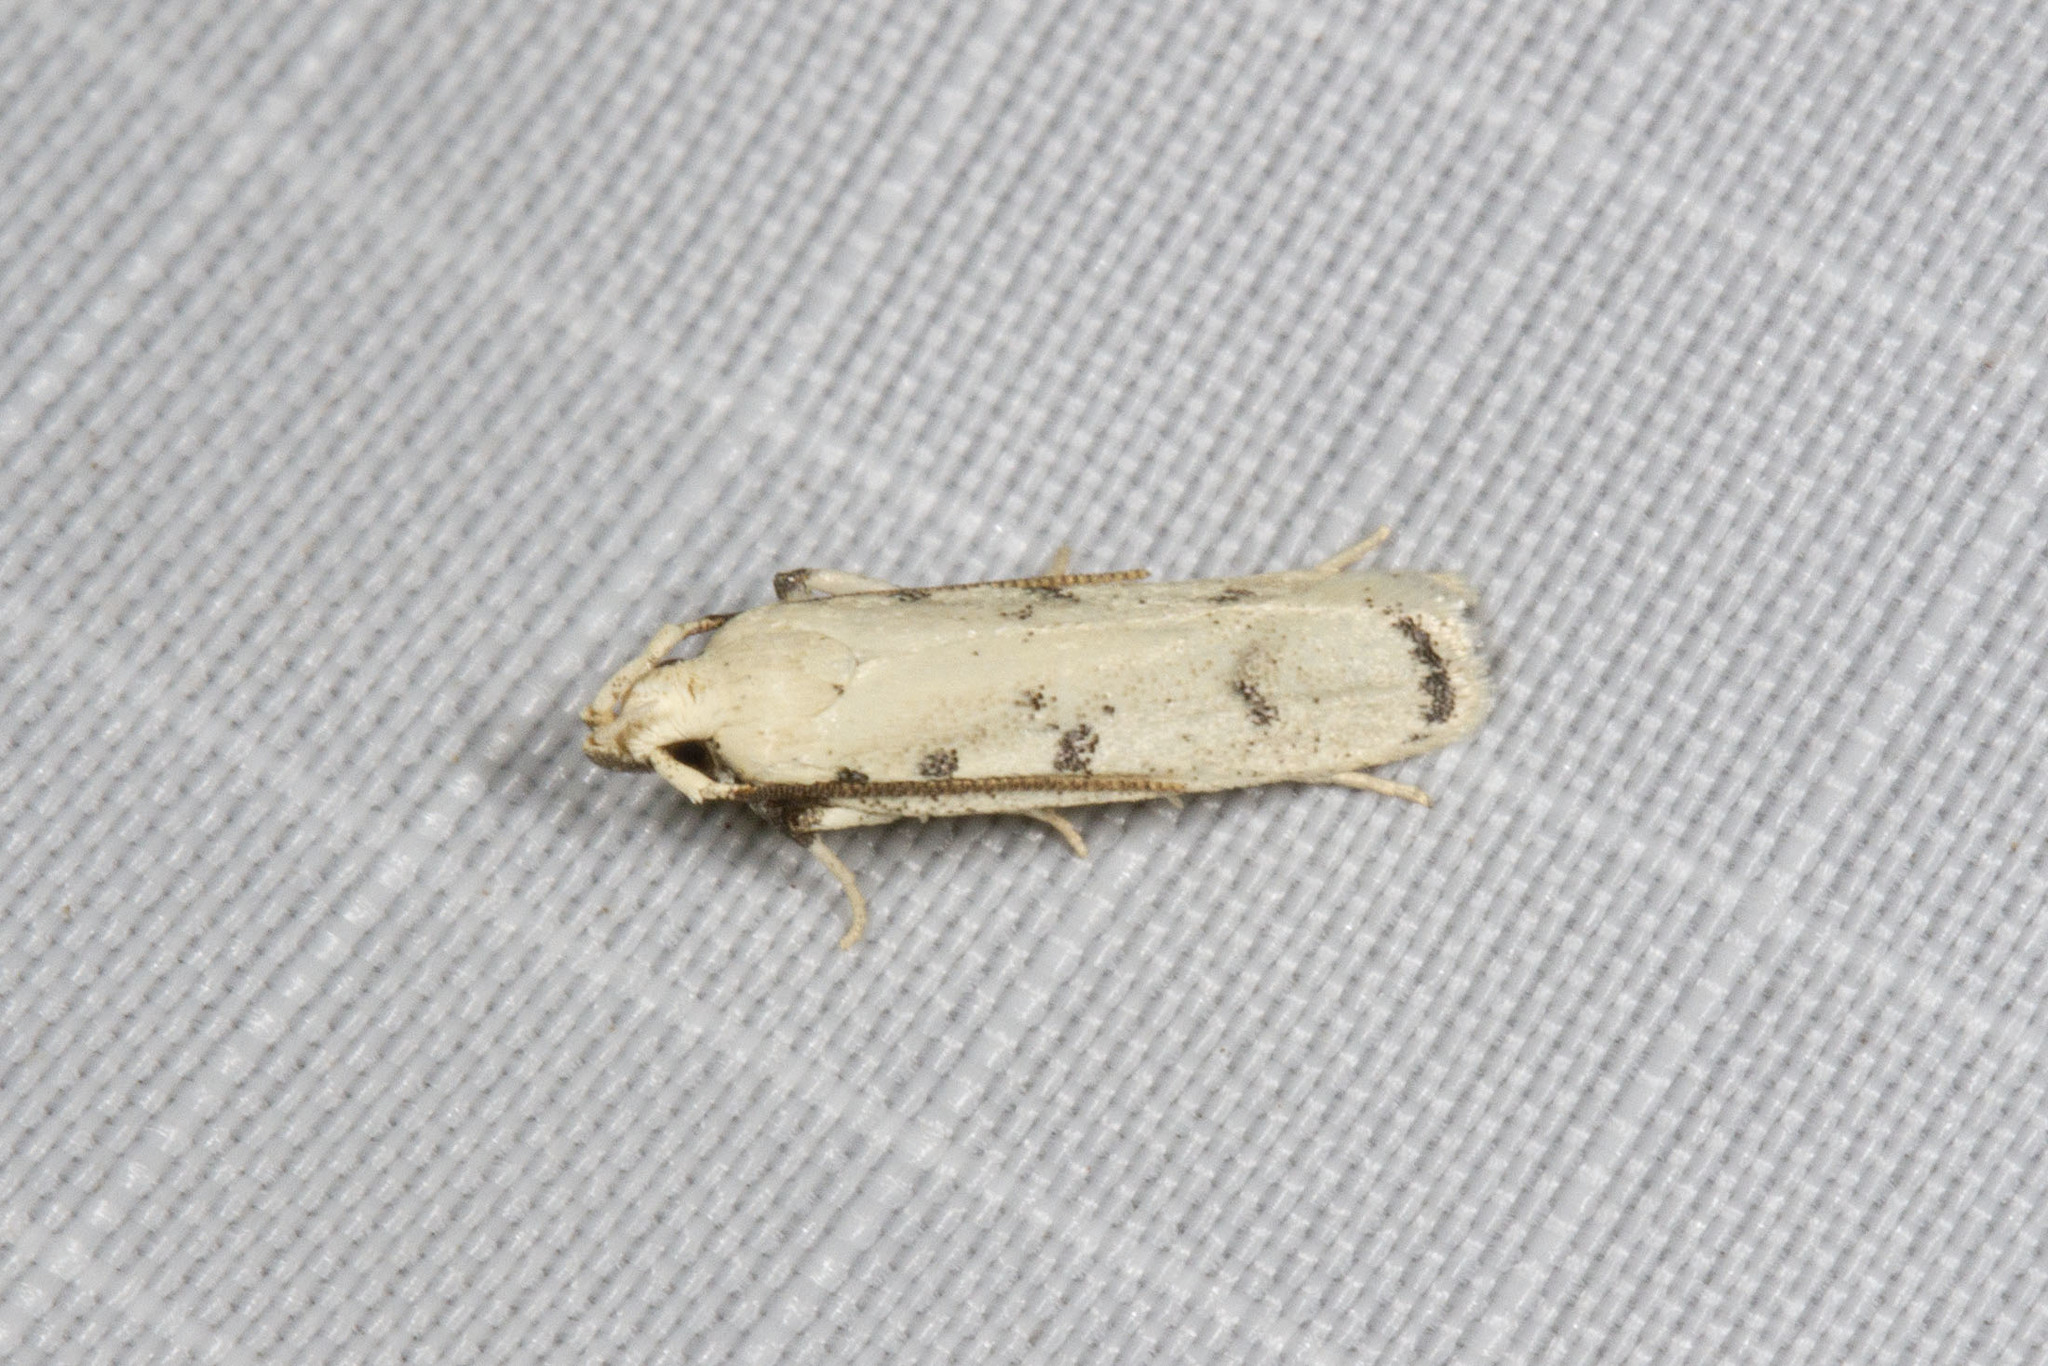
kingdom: Animalia
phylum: Arthropoda
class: Insecta
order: Lepidoptera
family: Autostichidae
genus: Glyphidocera
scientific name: Glyphidocera lactiflosella
